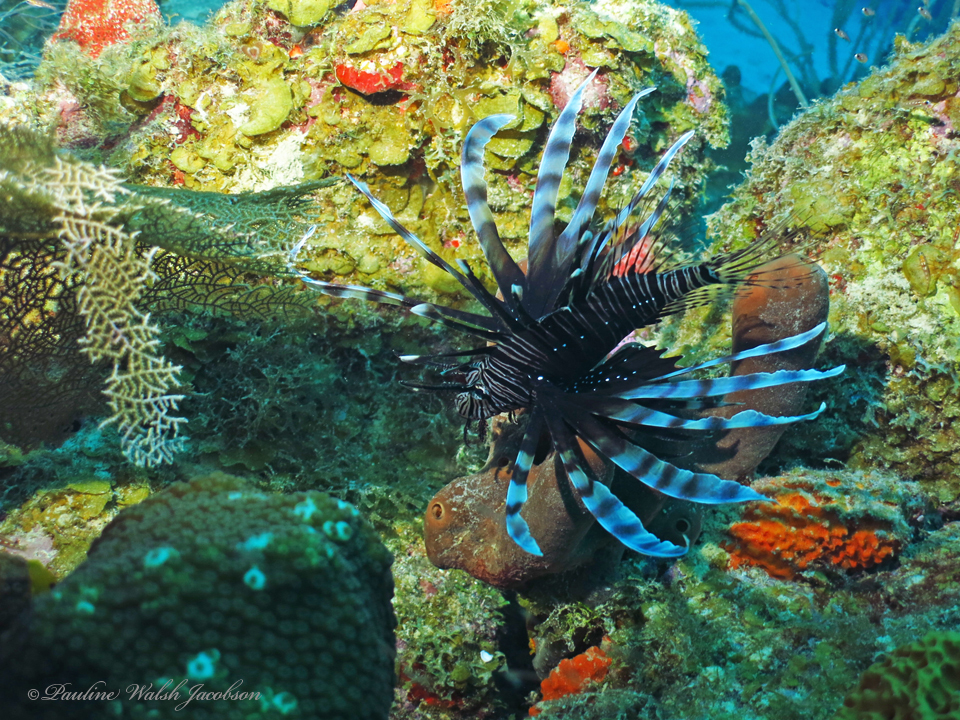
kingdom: Animalia
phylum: Chordata
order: Scorpaeniformes
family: Scorpaenidae
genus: Pterois
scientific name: Pterois volitans
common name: Lionfish
